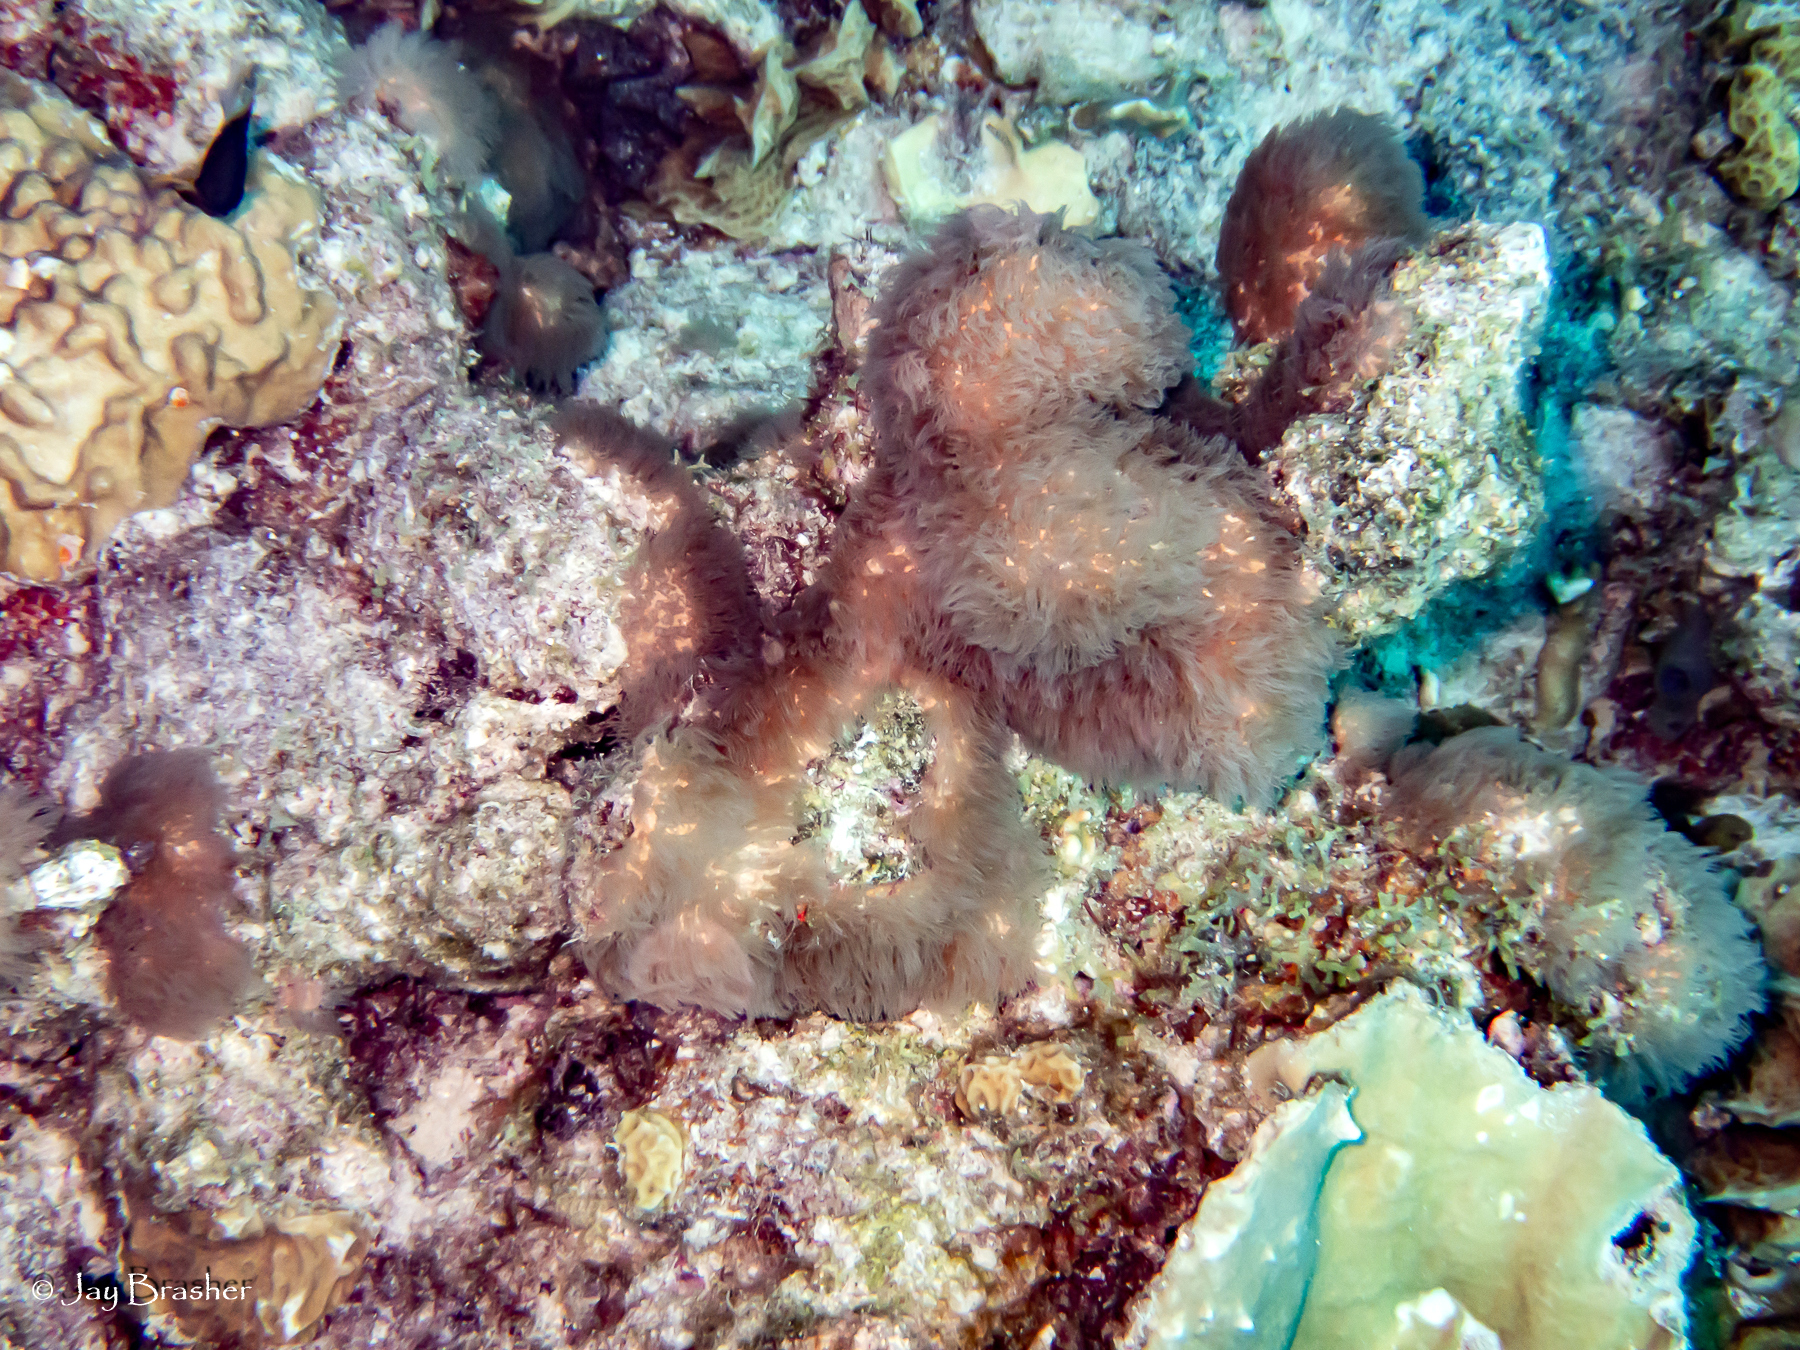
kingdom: Animalia
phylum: Cnidaria
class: Anthozoa
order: Scleralcyonacea
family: Erythropodiidae
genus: Erythropodium
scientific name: Erythropodium caribaeorum
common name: Encrusting gorgonian
